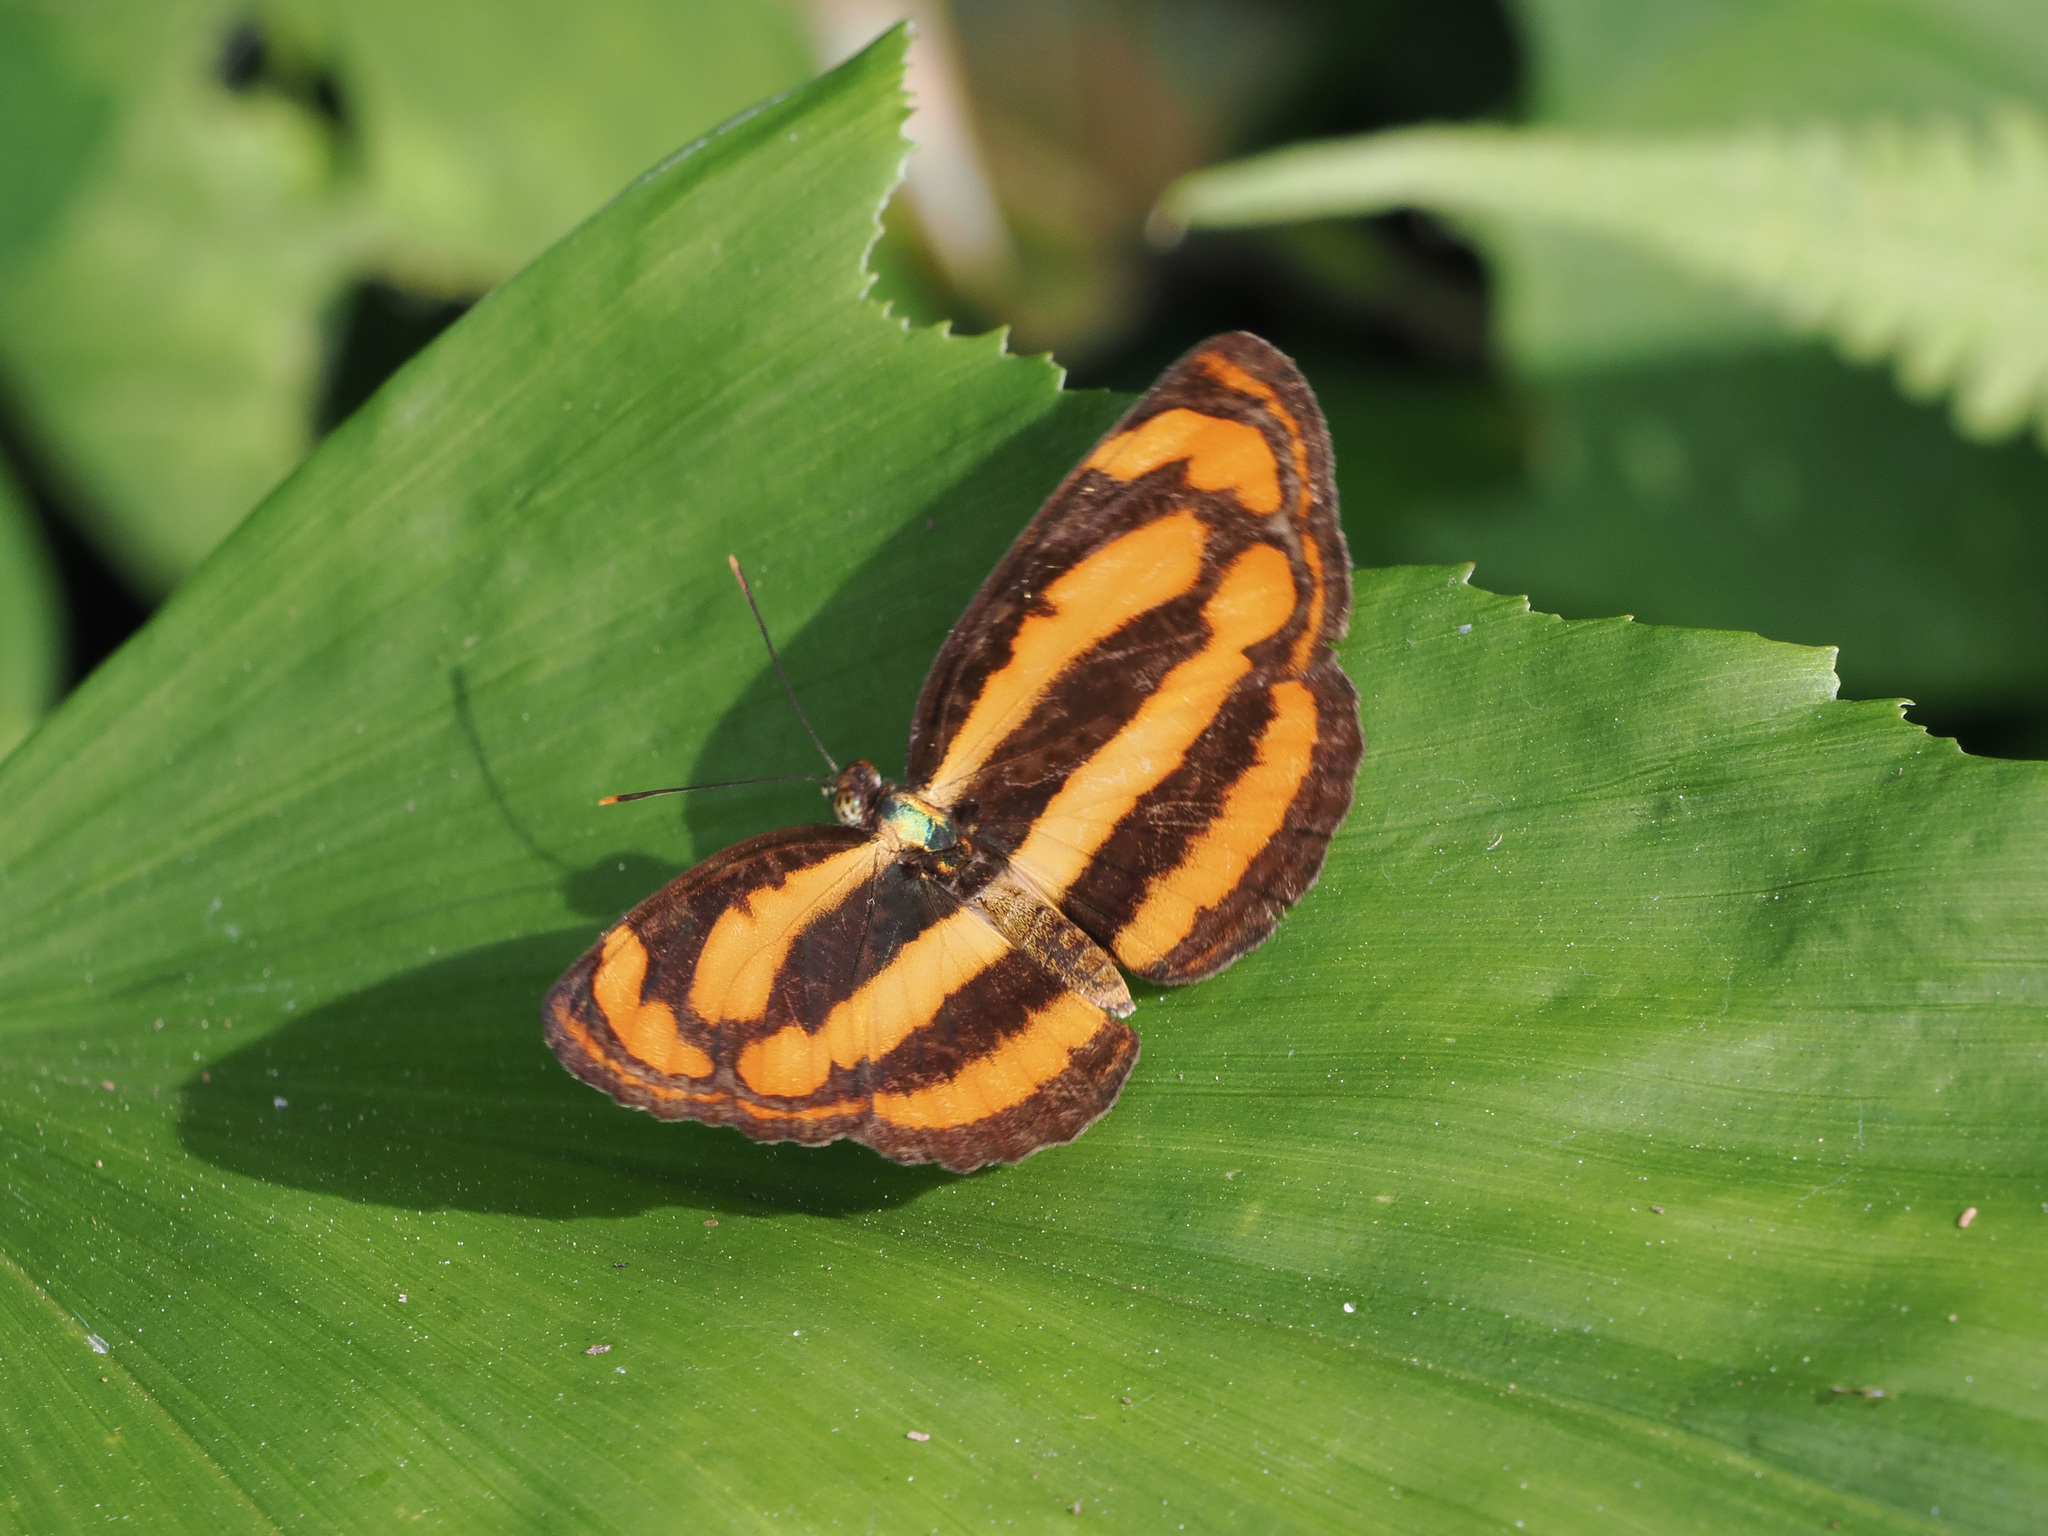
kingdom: Animalia
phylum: Arthropoda
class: Insecta
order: Lepidoptera
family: Nymphalidae
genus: Pantoporia
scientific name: Pantoporia hordonia
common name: Common lascar
